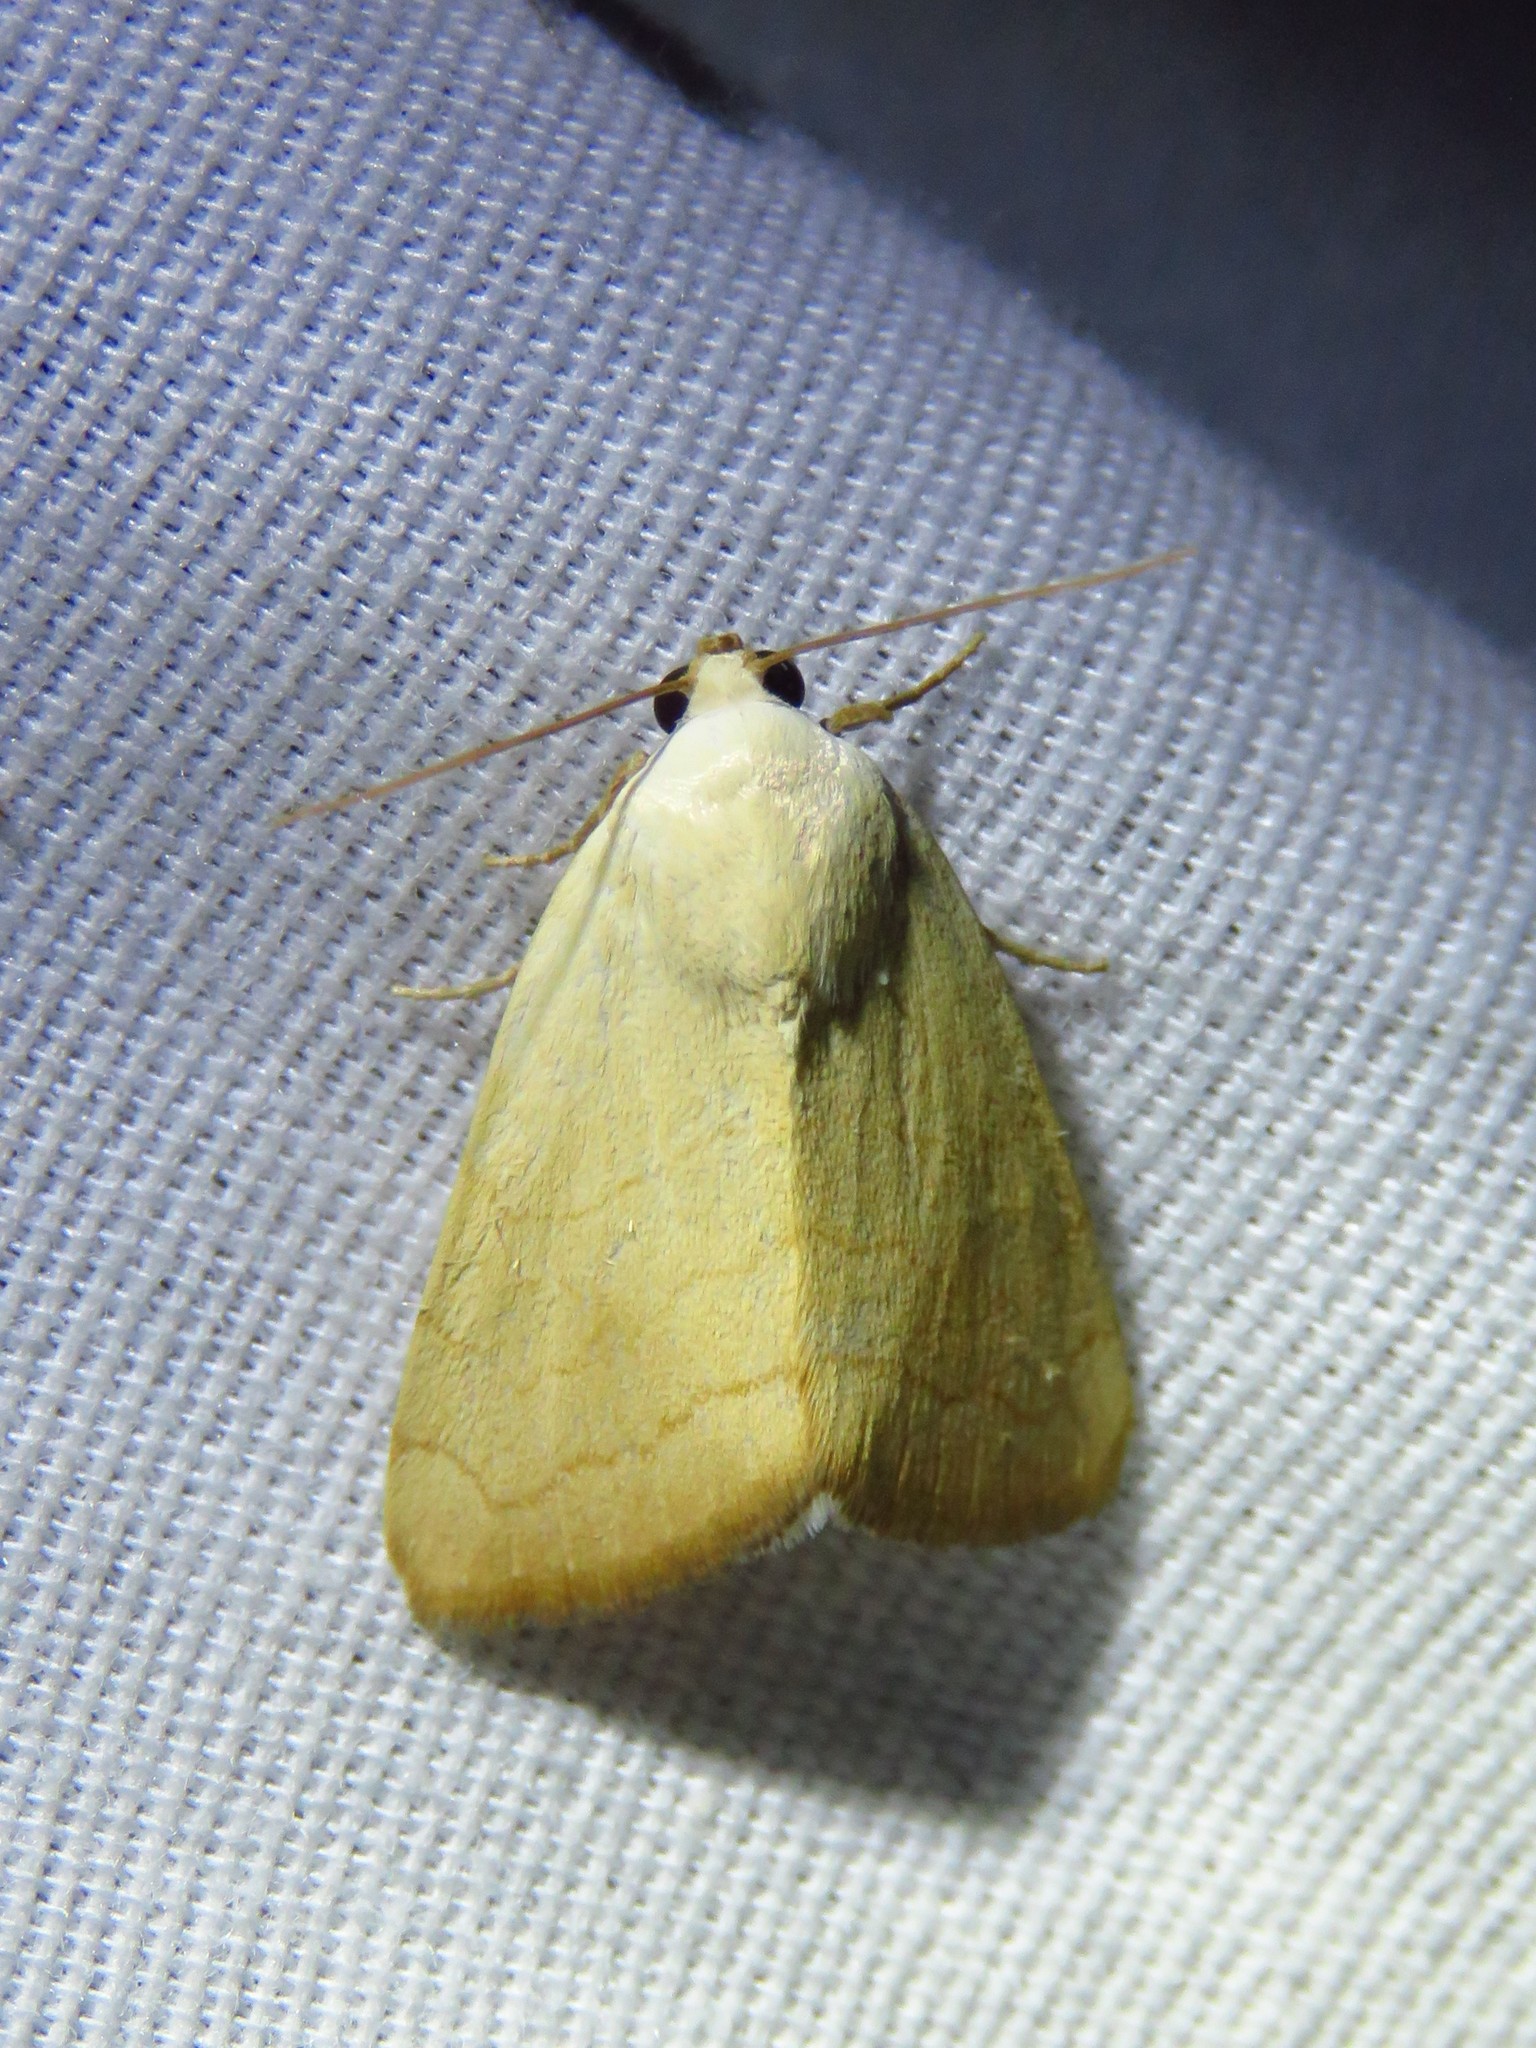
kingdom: Animalia
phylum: Arthropoda
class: Insecta
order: Lepidoptera
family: Noctuidae
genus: Bagisara
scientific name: Bagisara buxea
